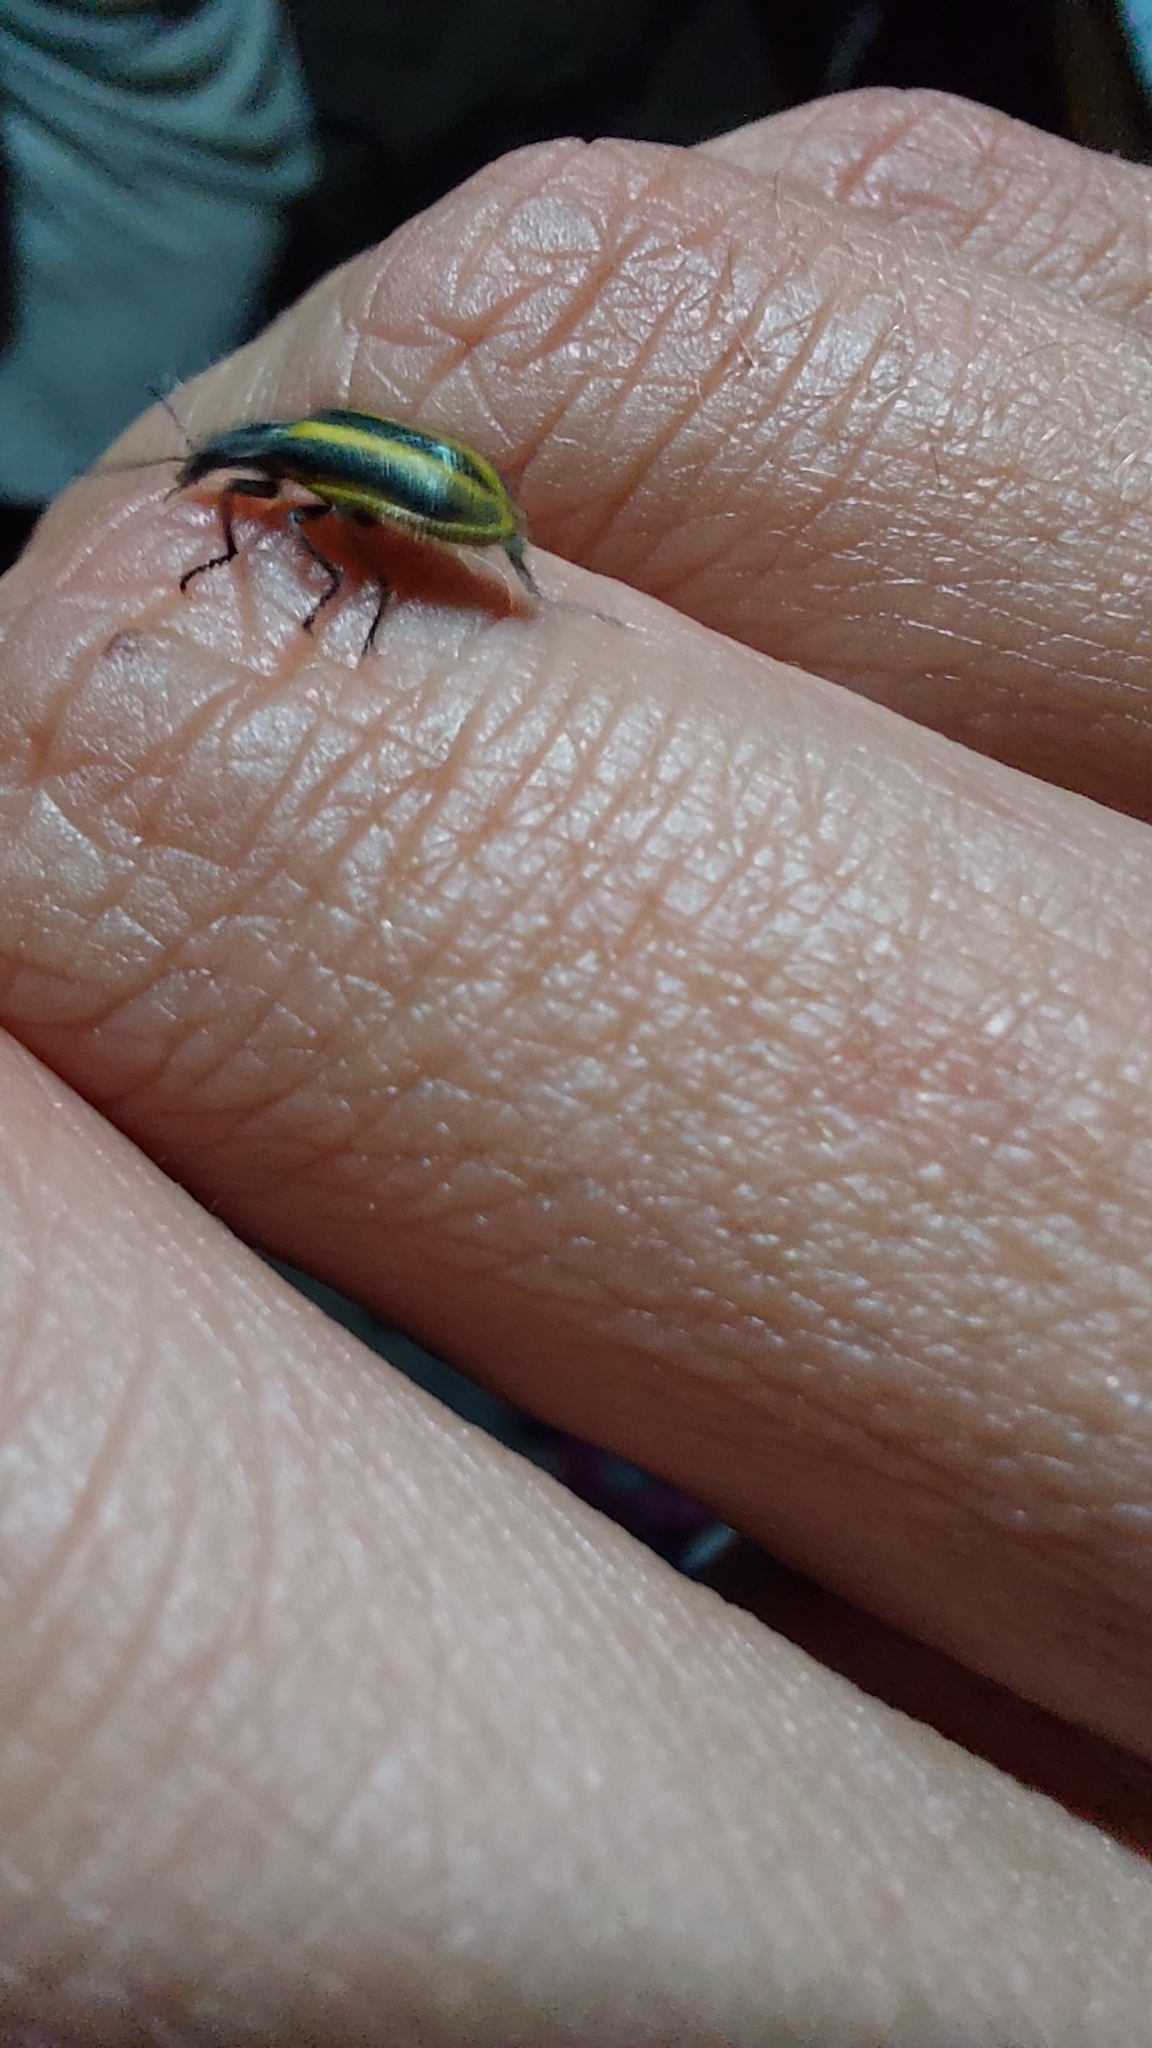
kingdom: Animalia
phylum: Arthropoda
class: Insecta
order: Coleoptera
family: Melyridae
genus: Astylus
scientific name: Astylus vittaticollis
